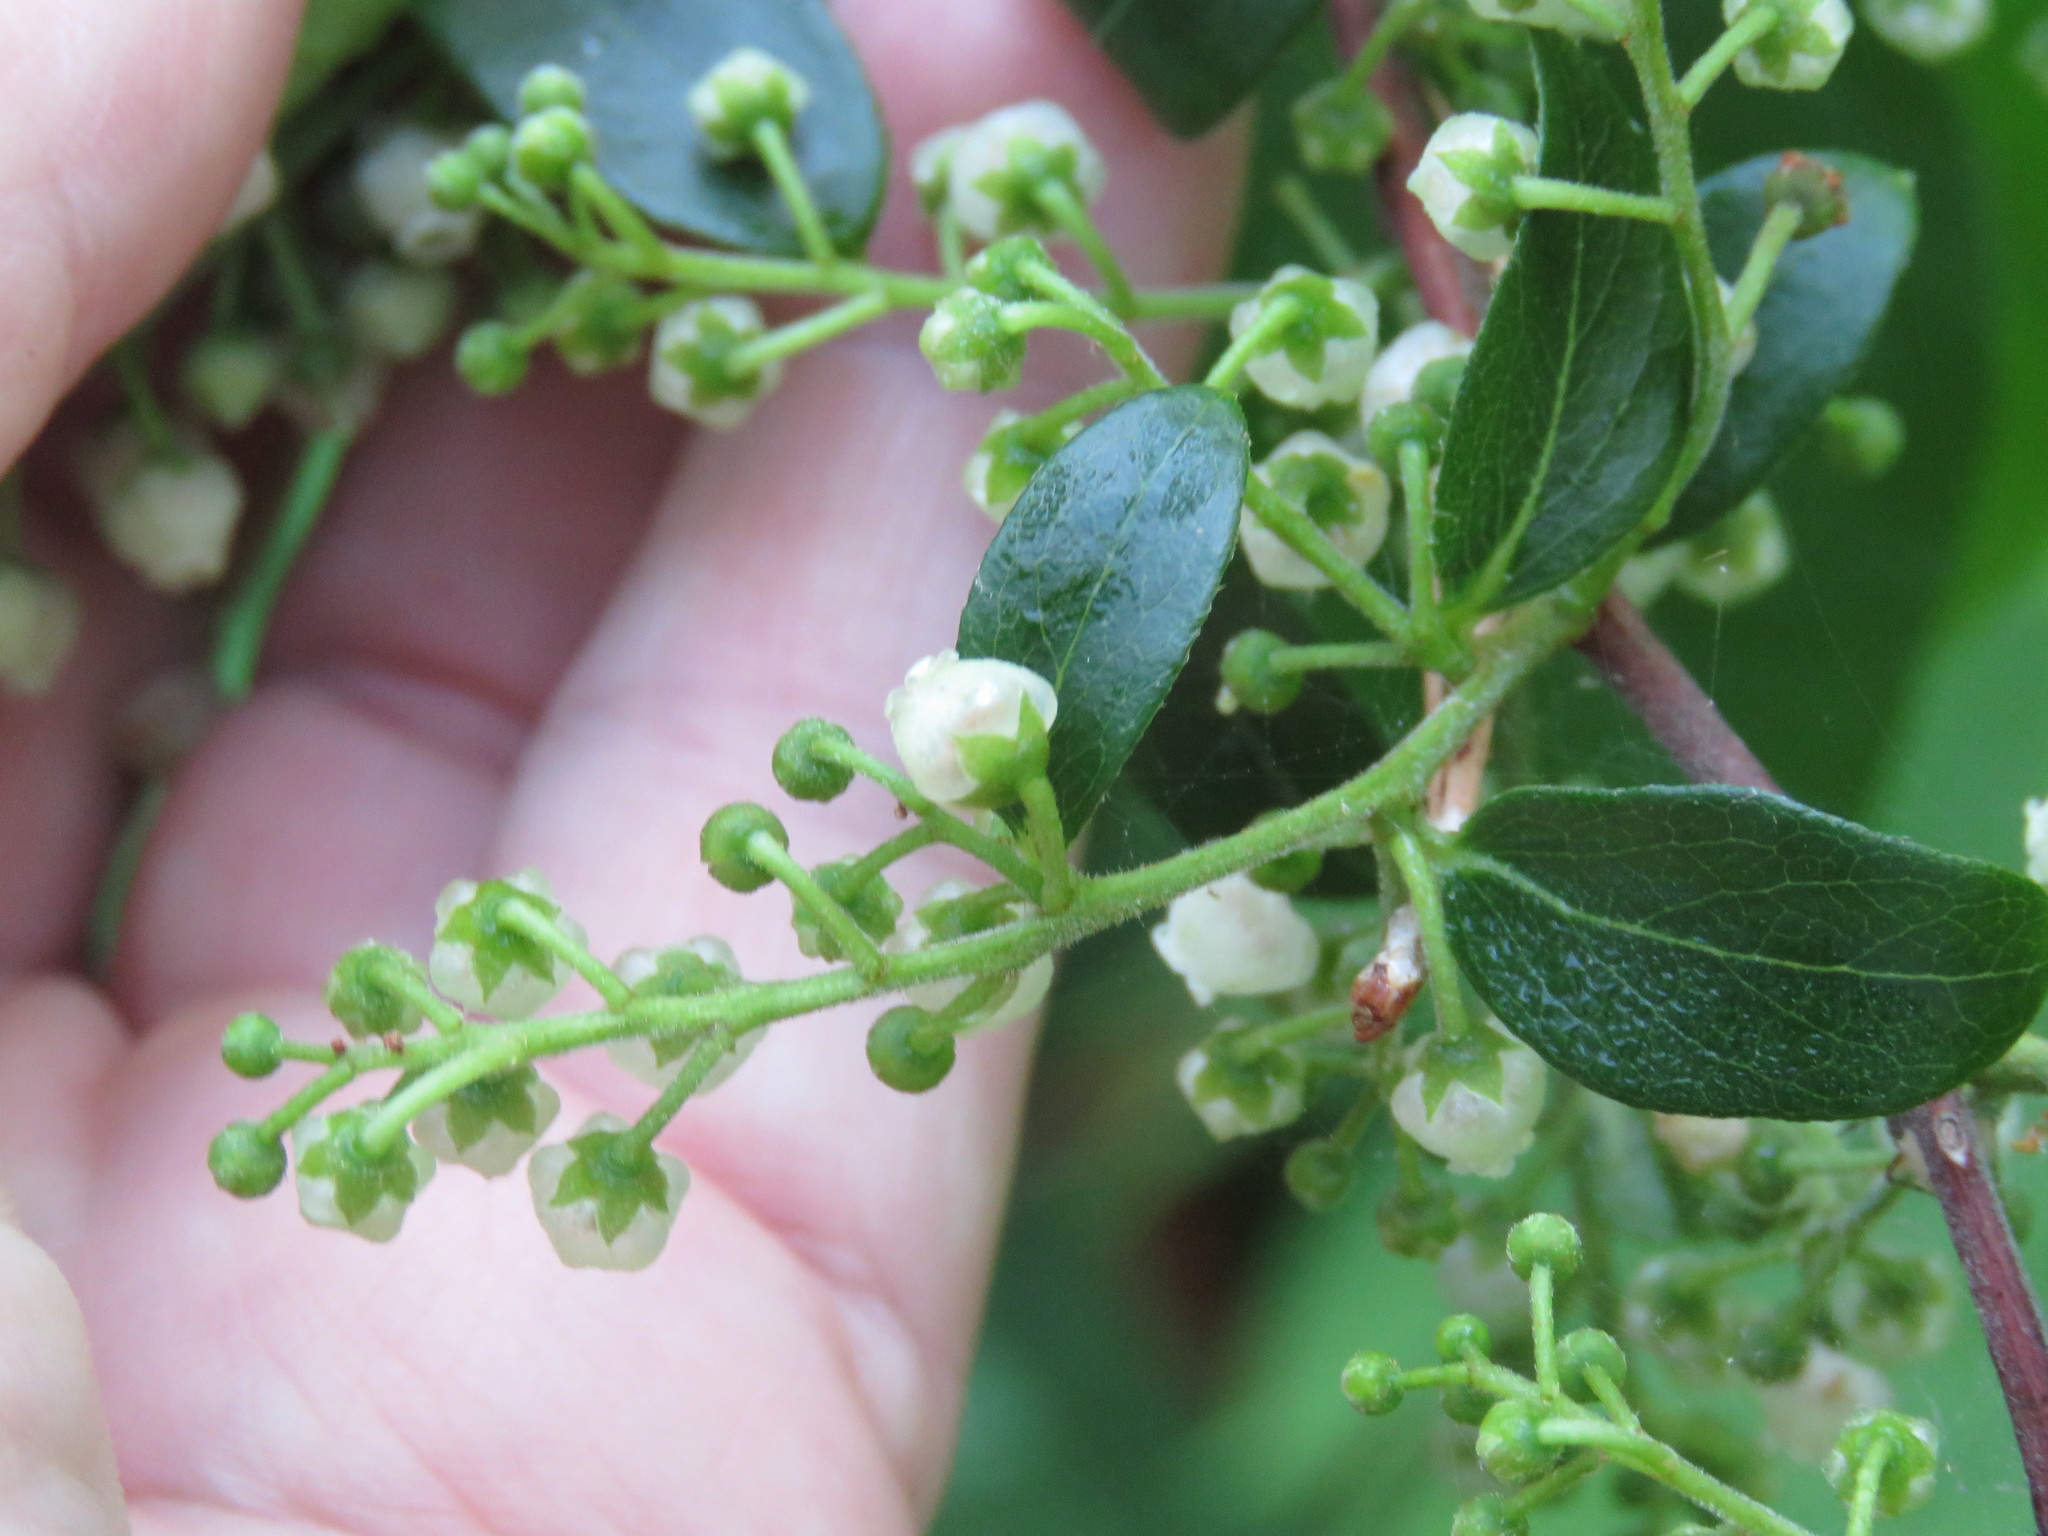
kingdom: Plantae
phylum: Tracheophyta
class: Magnoliopsida
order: Ericales
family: Ericaceae
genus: Lyonia
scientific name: Lyonia ligustrina
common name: Maleberry
